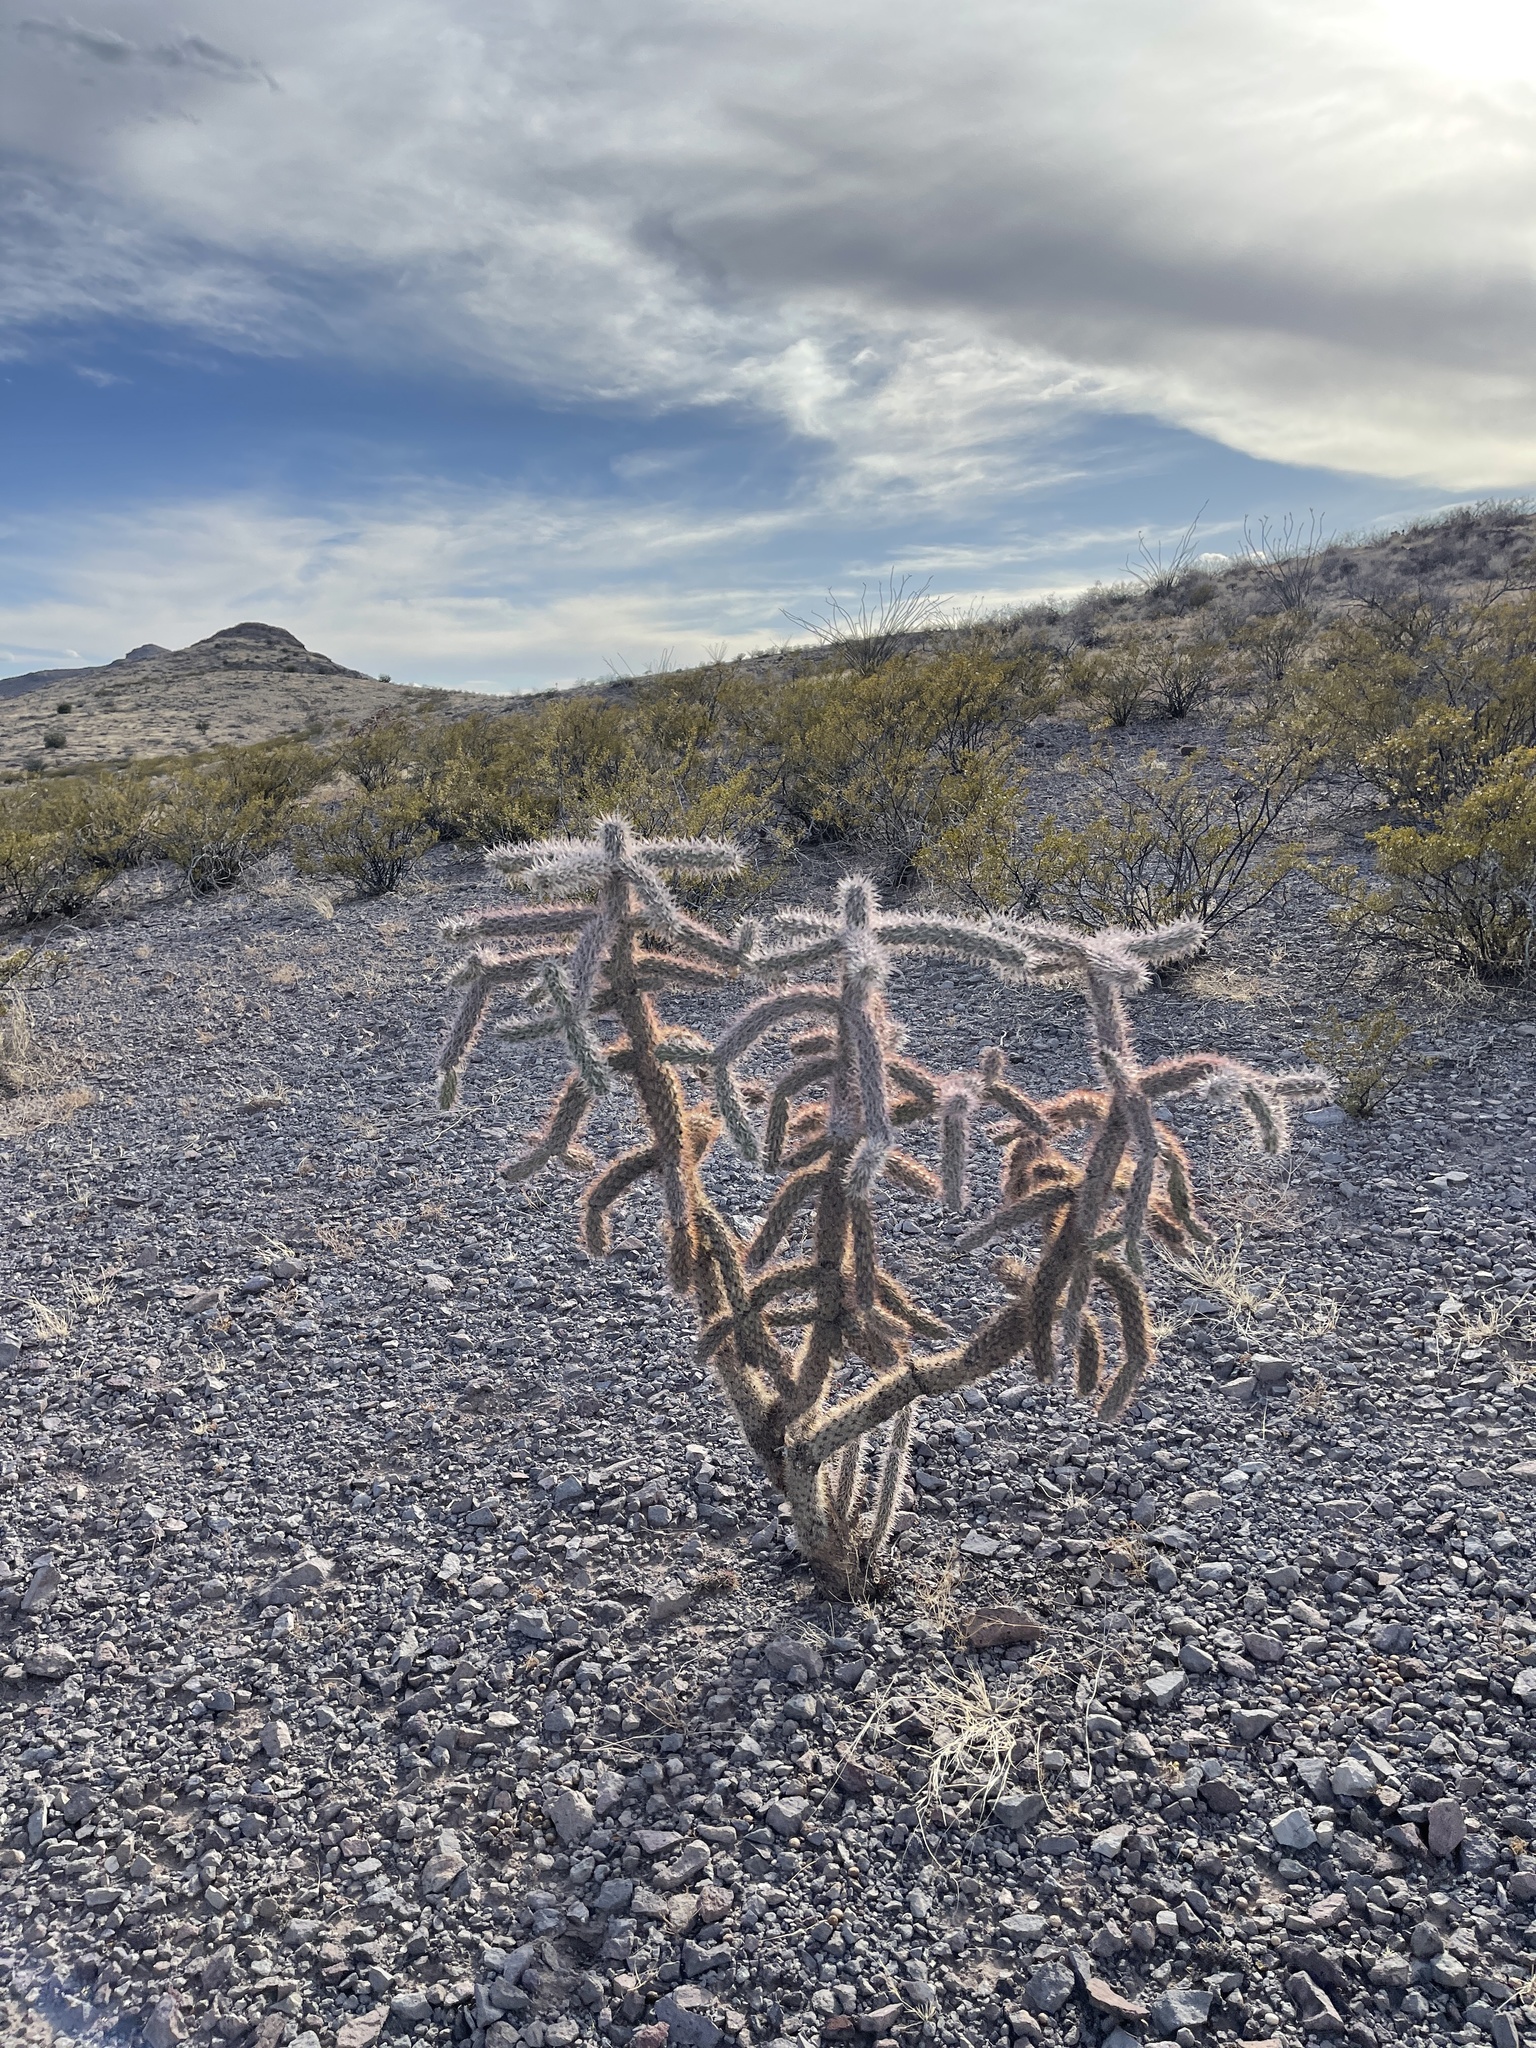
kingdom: Plantae
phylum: Tracheophyta
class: Magnoliopsida
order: Caryophyllales
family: Cactaceae
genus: Cylindropuntia
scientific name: Cylindropuntia imbricata
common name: Candelabrum cactus
